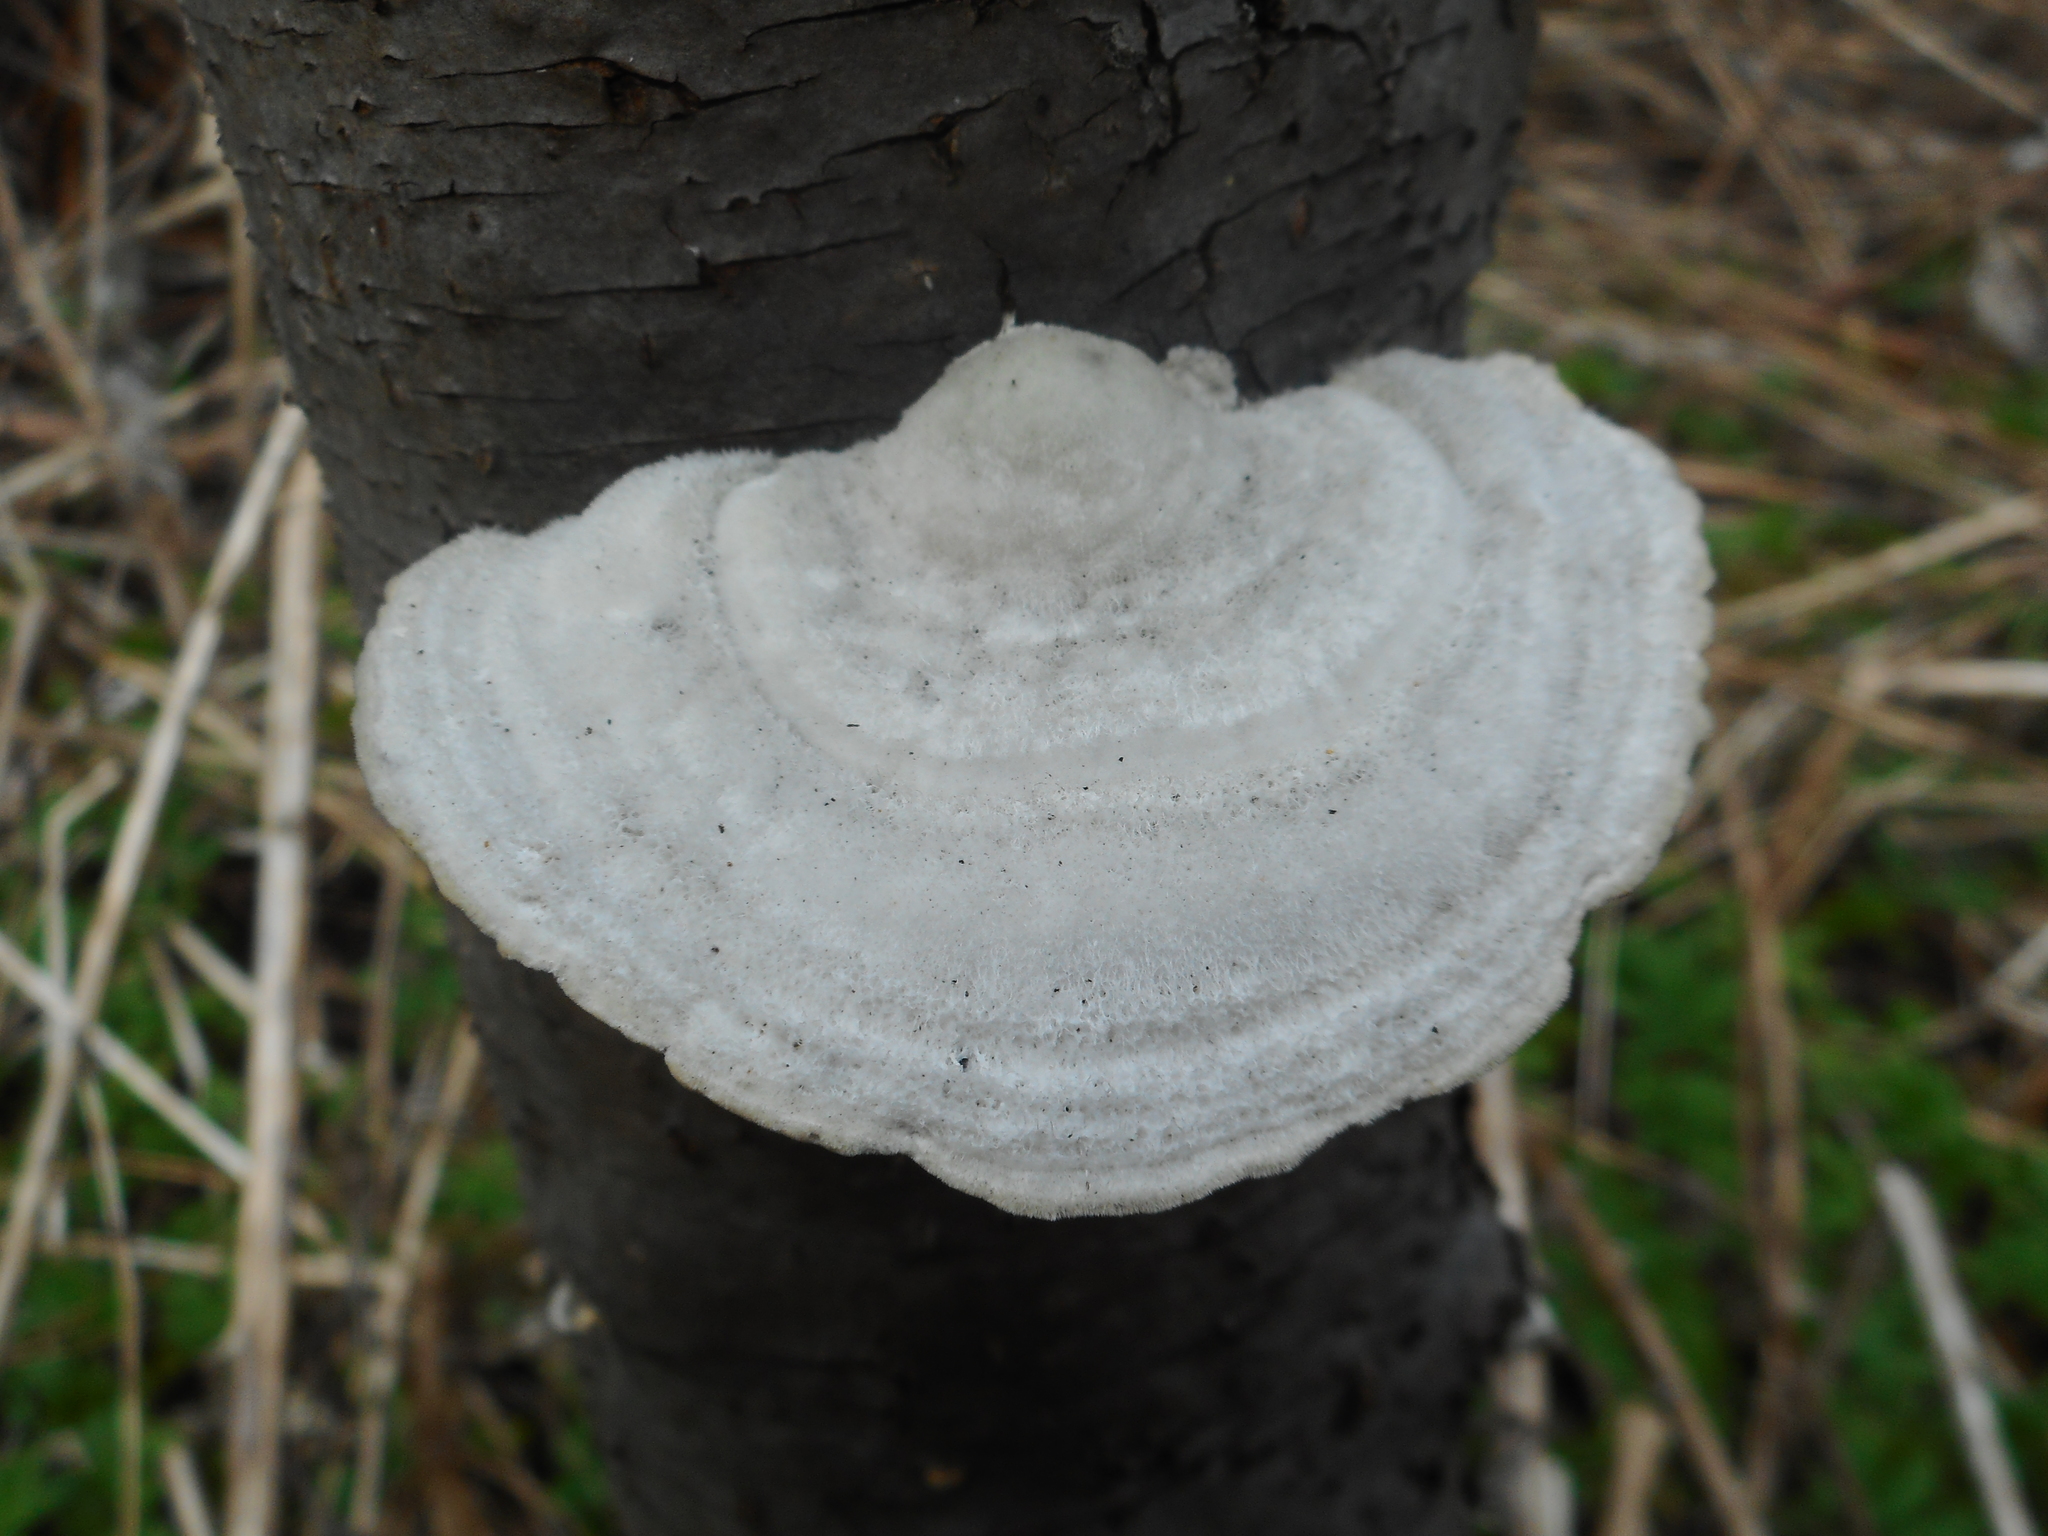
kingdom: Fungi
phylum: Basidiomycota
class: Agaricomycetes
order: Polyporales
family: Polyporaceae
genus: Trametes
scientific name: Trametes pubescens
